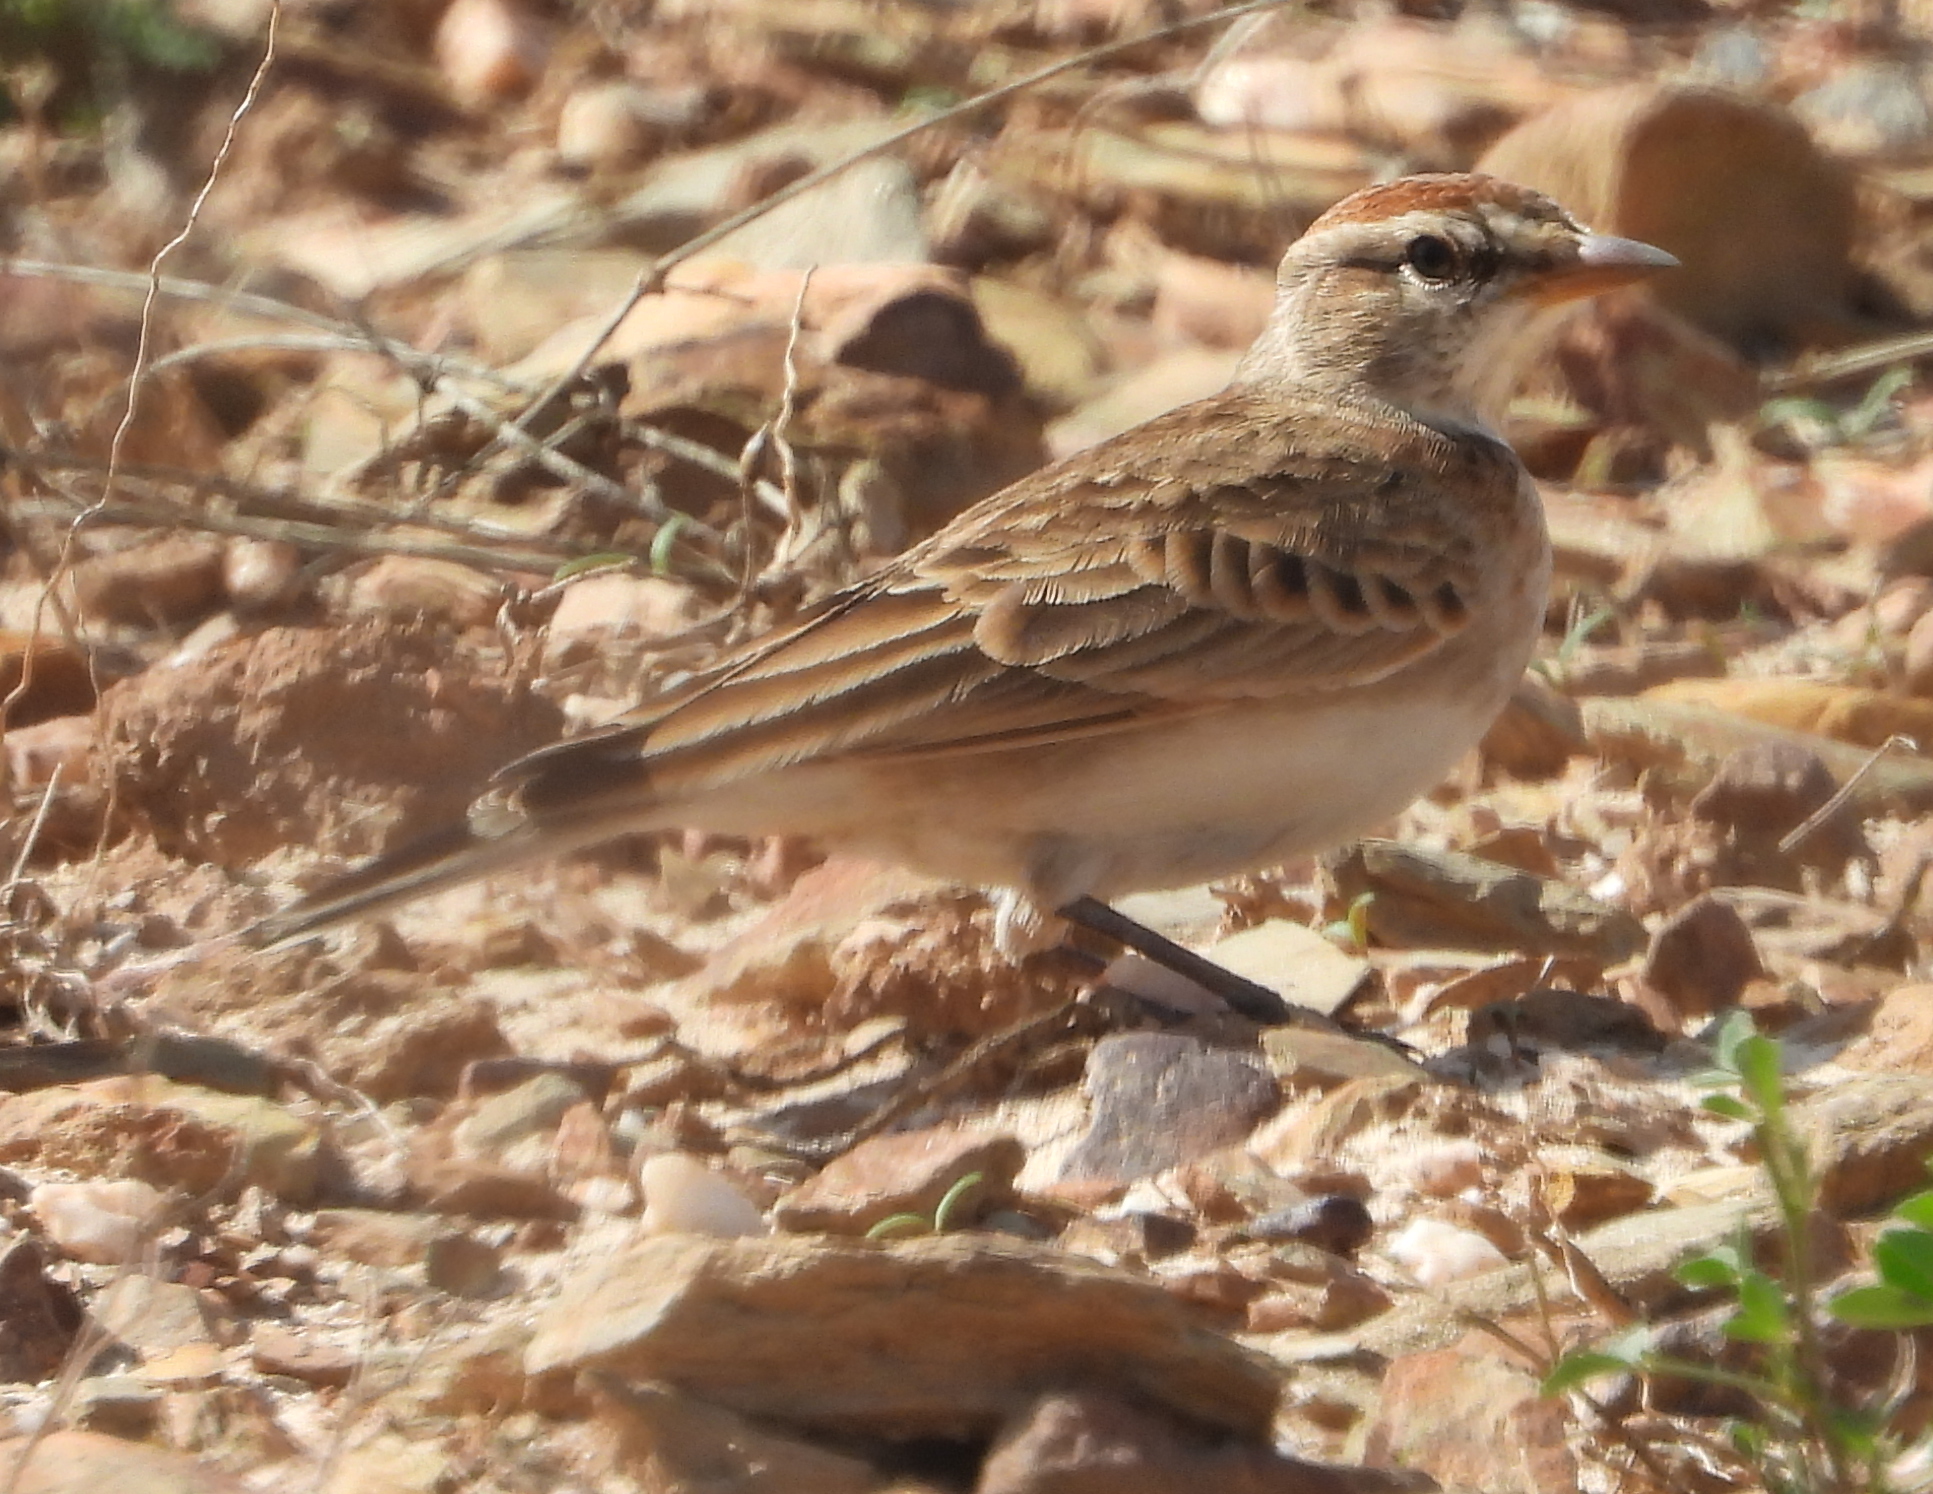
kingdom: Animalia
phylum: Chordata
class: Aves
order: Passeriformes
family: Alaudidae
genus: Calandrella
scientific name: Calandrella cinerea
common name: Red-capped lark
